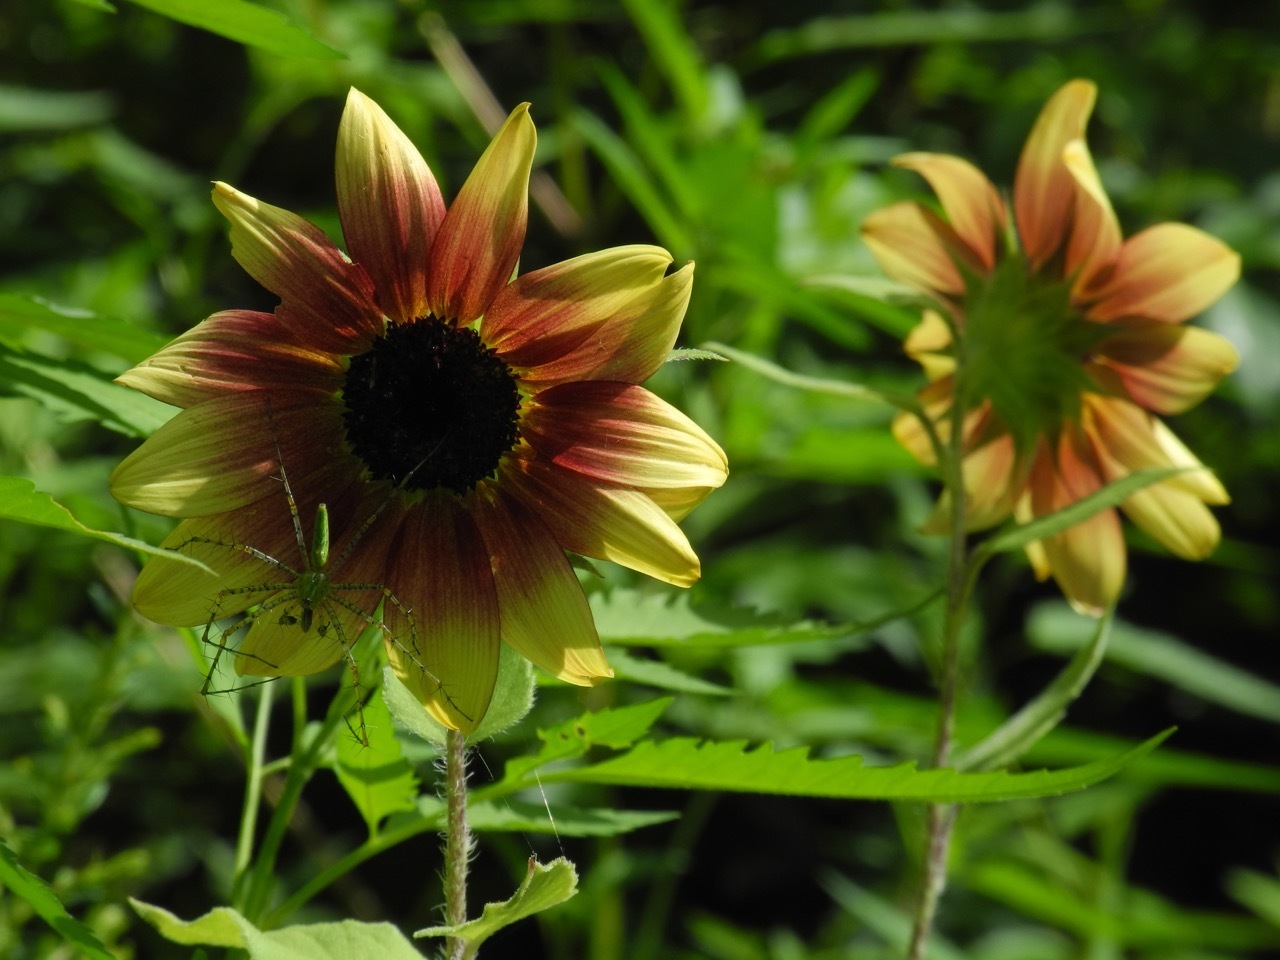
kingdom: Animalia
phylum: Arthropoda
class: Arachnida
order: Araneae
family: Oxyopidae
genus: Peucetia
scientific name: Peucetia viridans
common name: Lynx spiders
